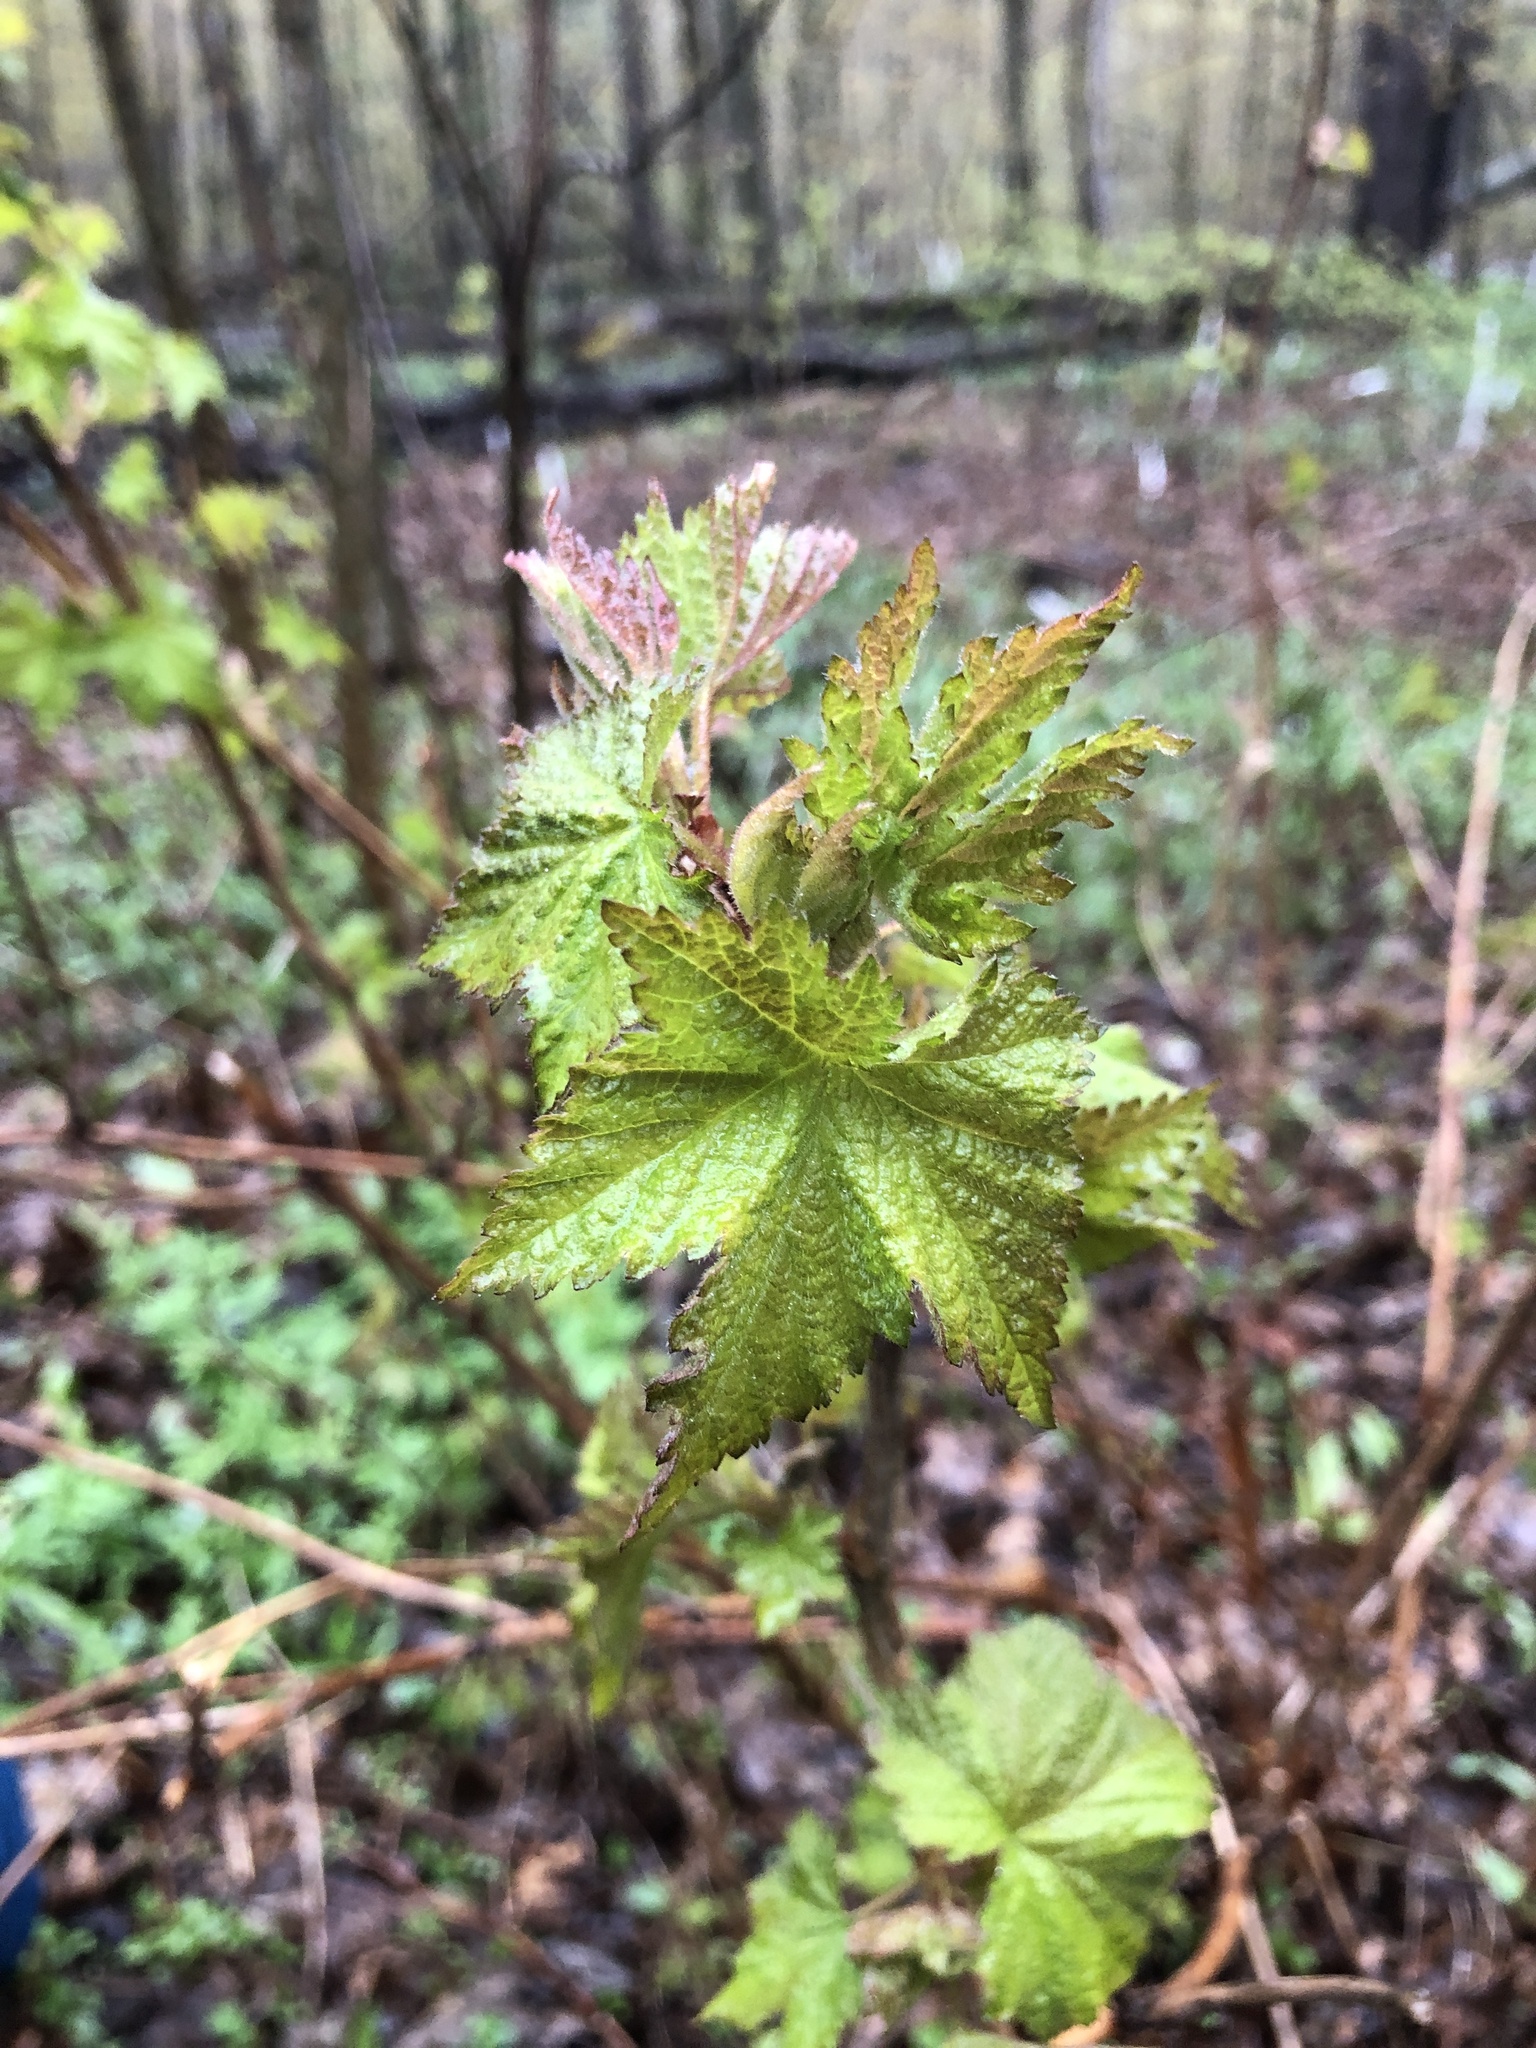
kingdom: Plantae
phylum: Tracheophyta
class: Magnoliopsida
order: Rosales
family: Rosaceae
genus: Rubus
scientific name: Rubus odoratus
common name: Purple-flowered raspberry
